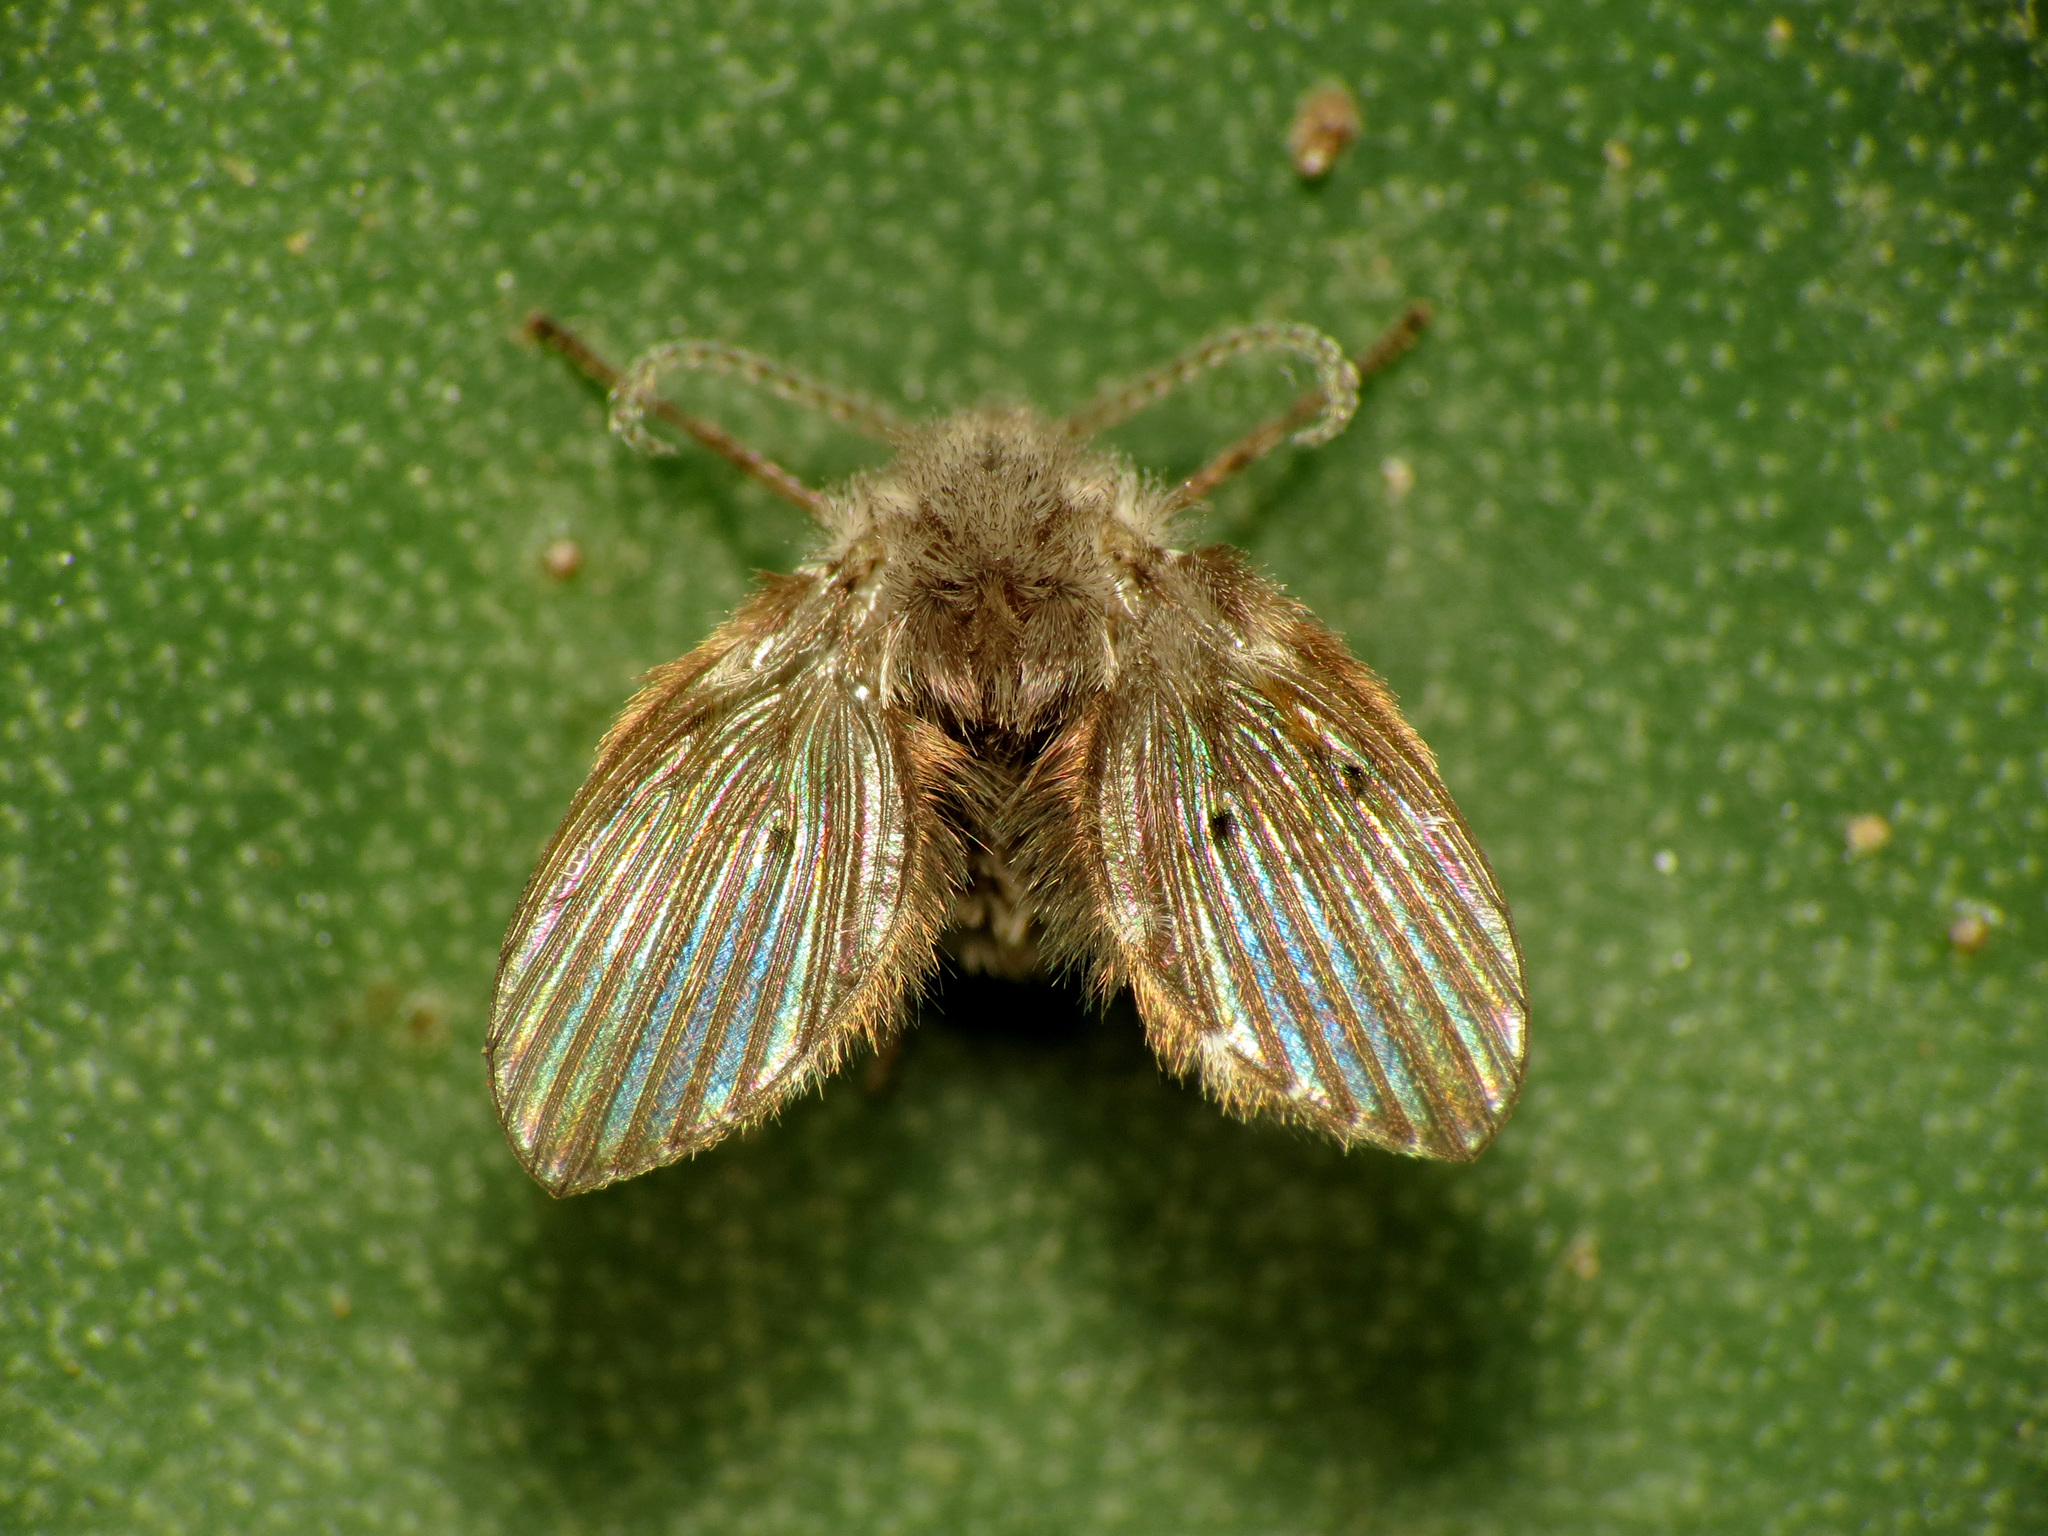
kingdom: Animalia
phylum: Arthropoda
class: Insecta
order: Diptera
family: Psychodidae
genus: Clogmia
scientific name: Clogmia albipunctatus
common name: White-spotted moth fly
